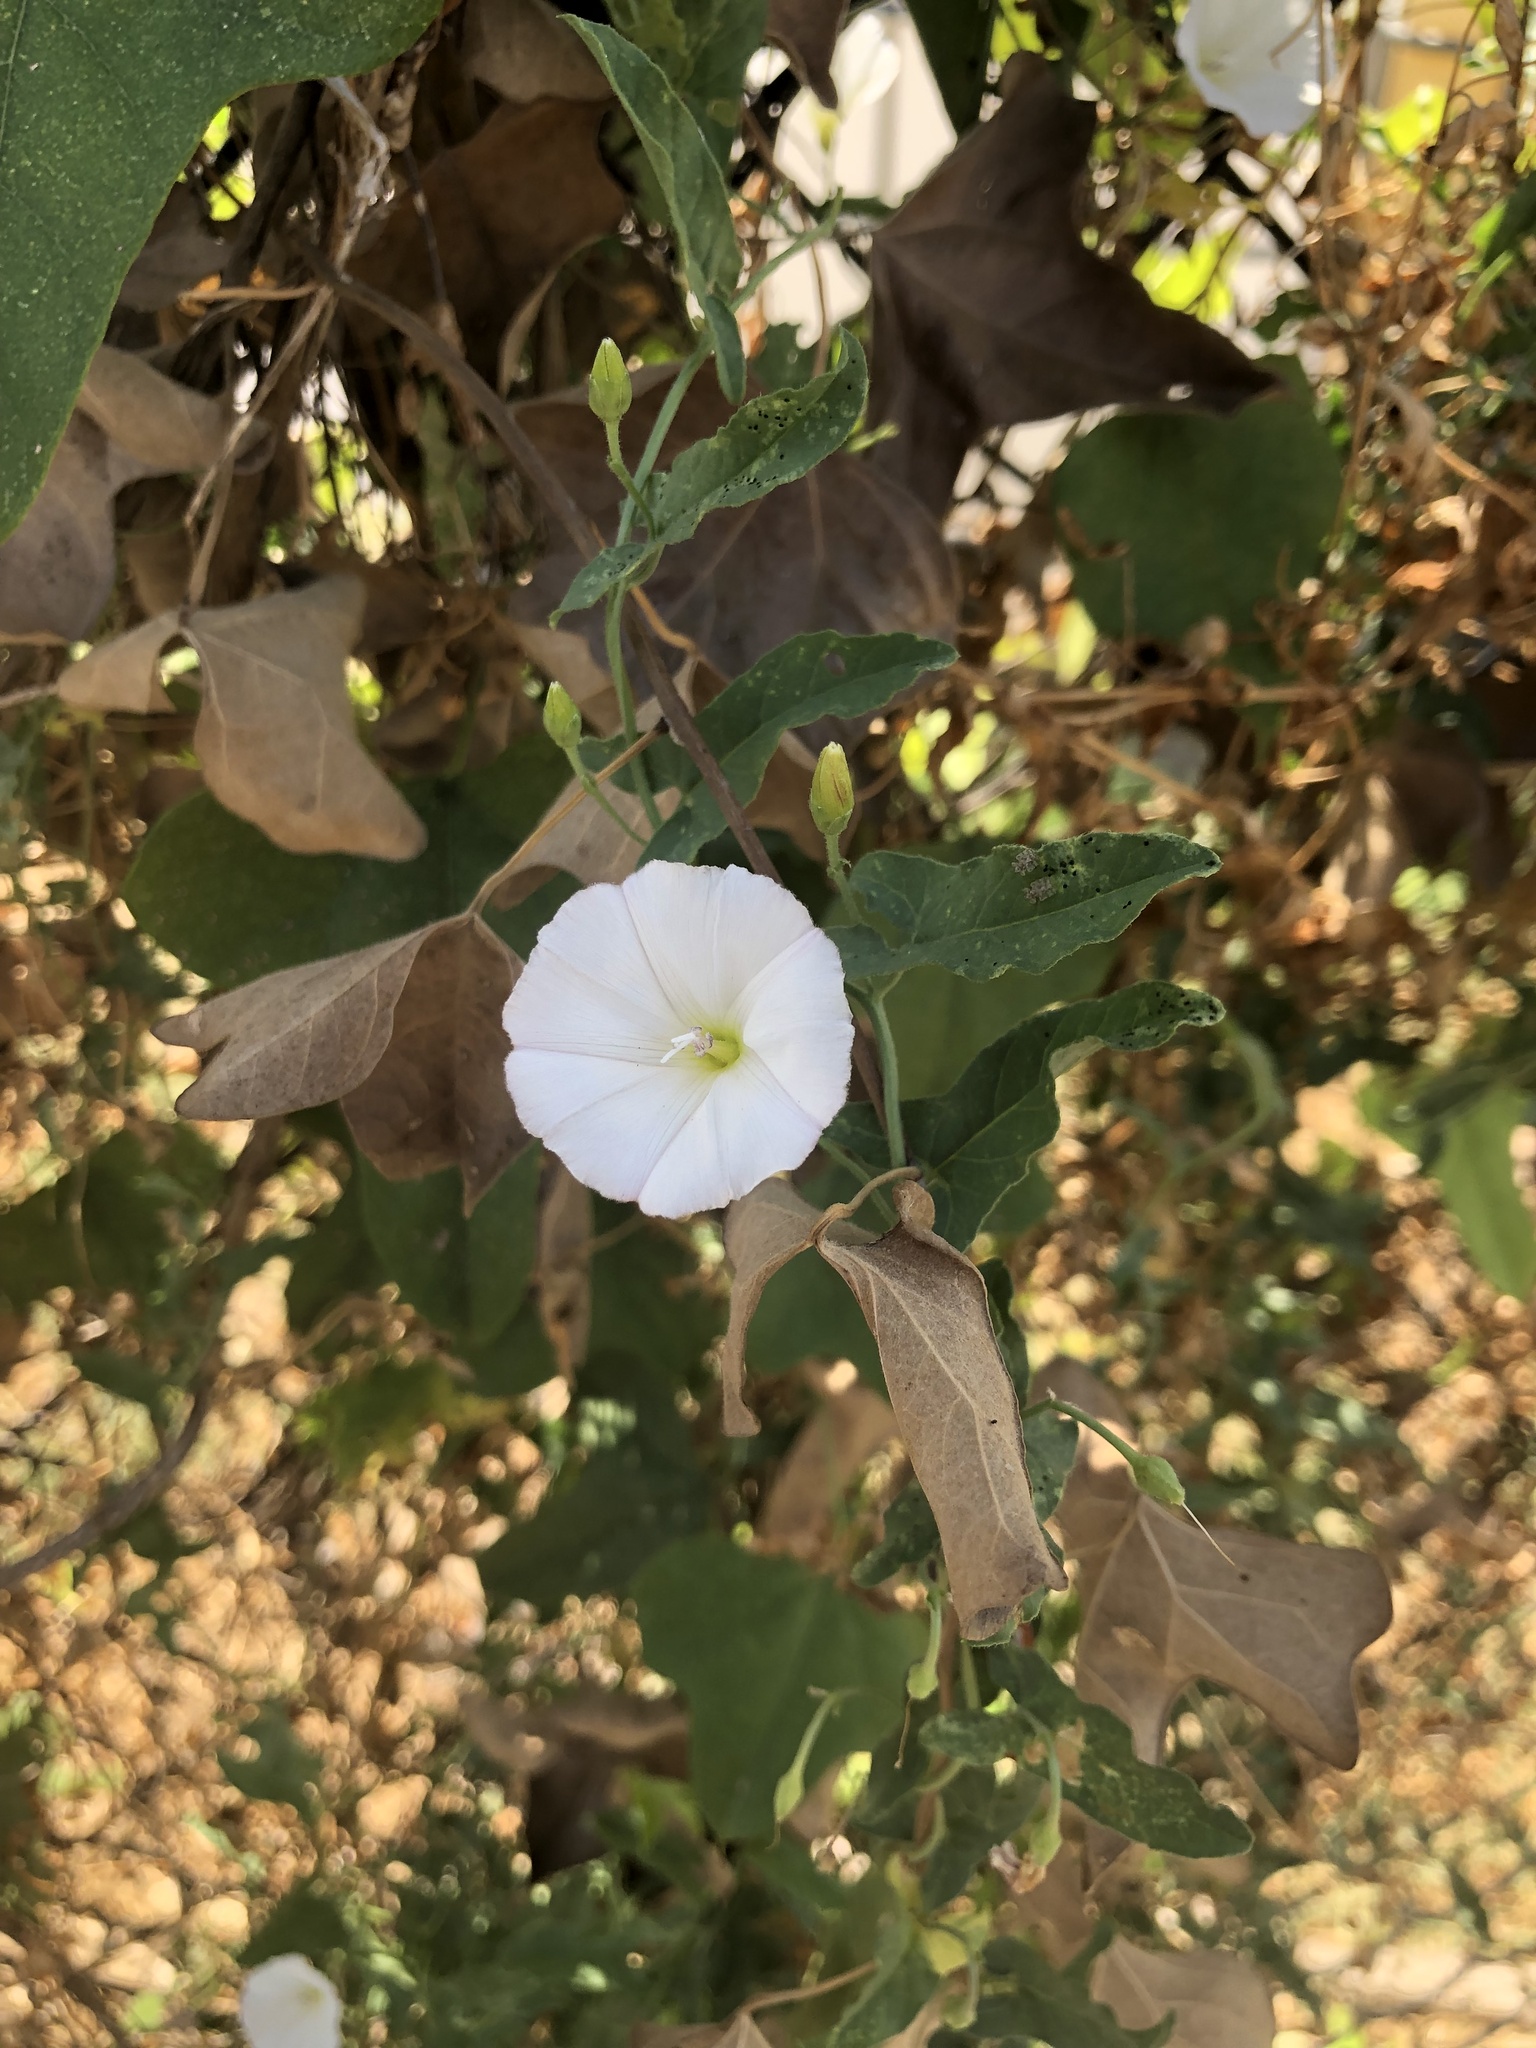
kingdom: Plantae
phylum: Tracheophyta
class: Magnoliopsida
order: Solanales
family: Convolvulaceae
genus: Convolvulus
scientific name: Convolvulus arvensis
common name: Field bindweed
